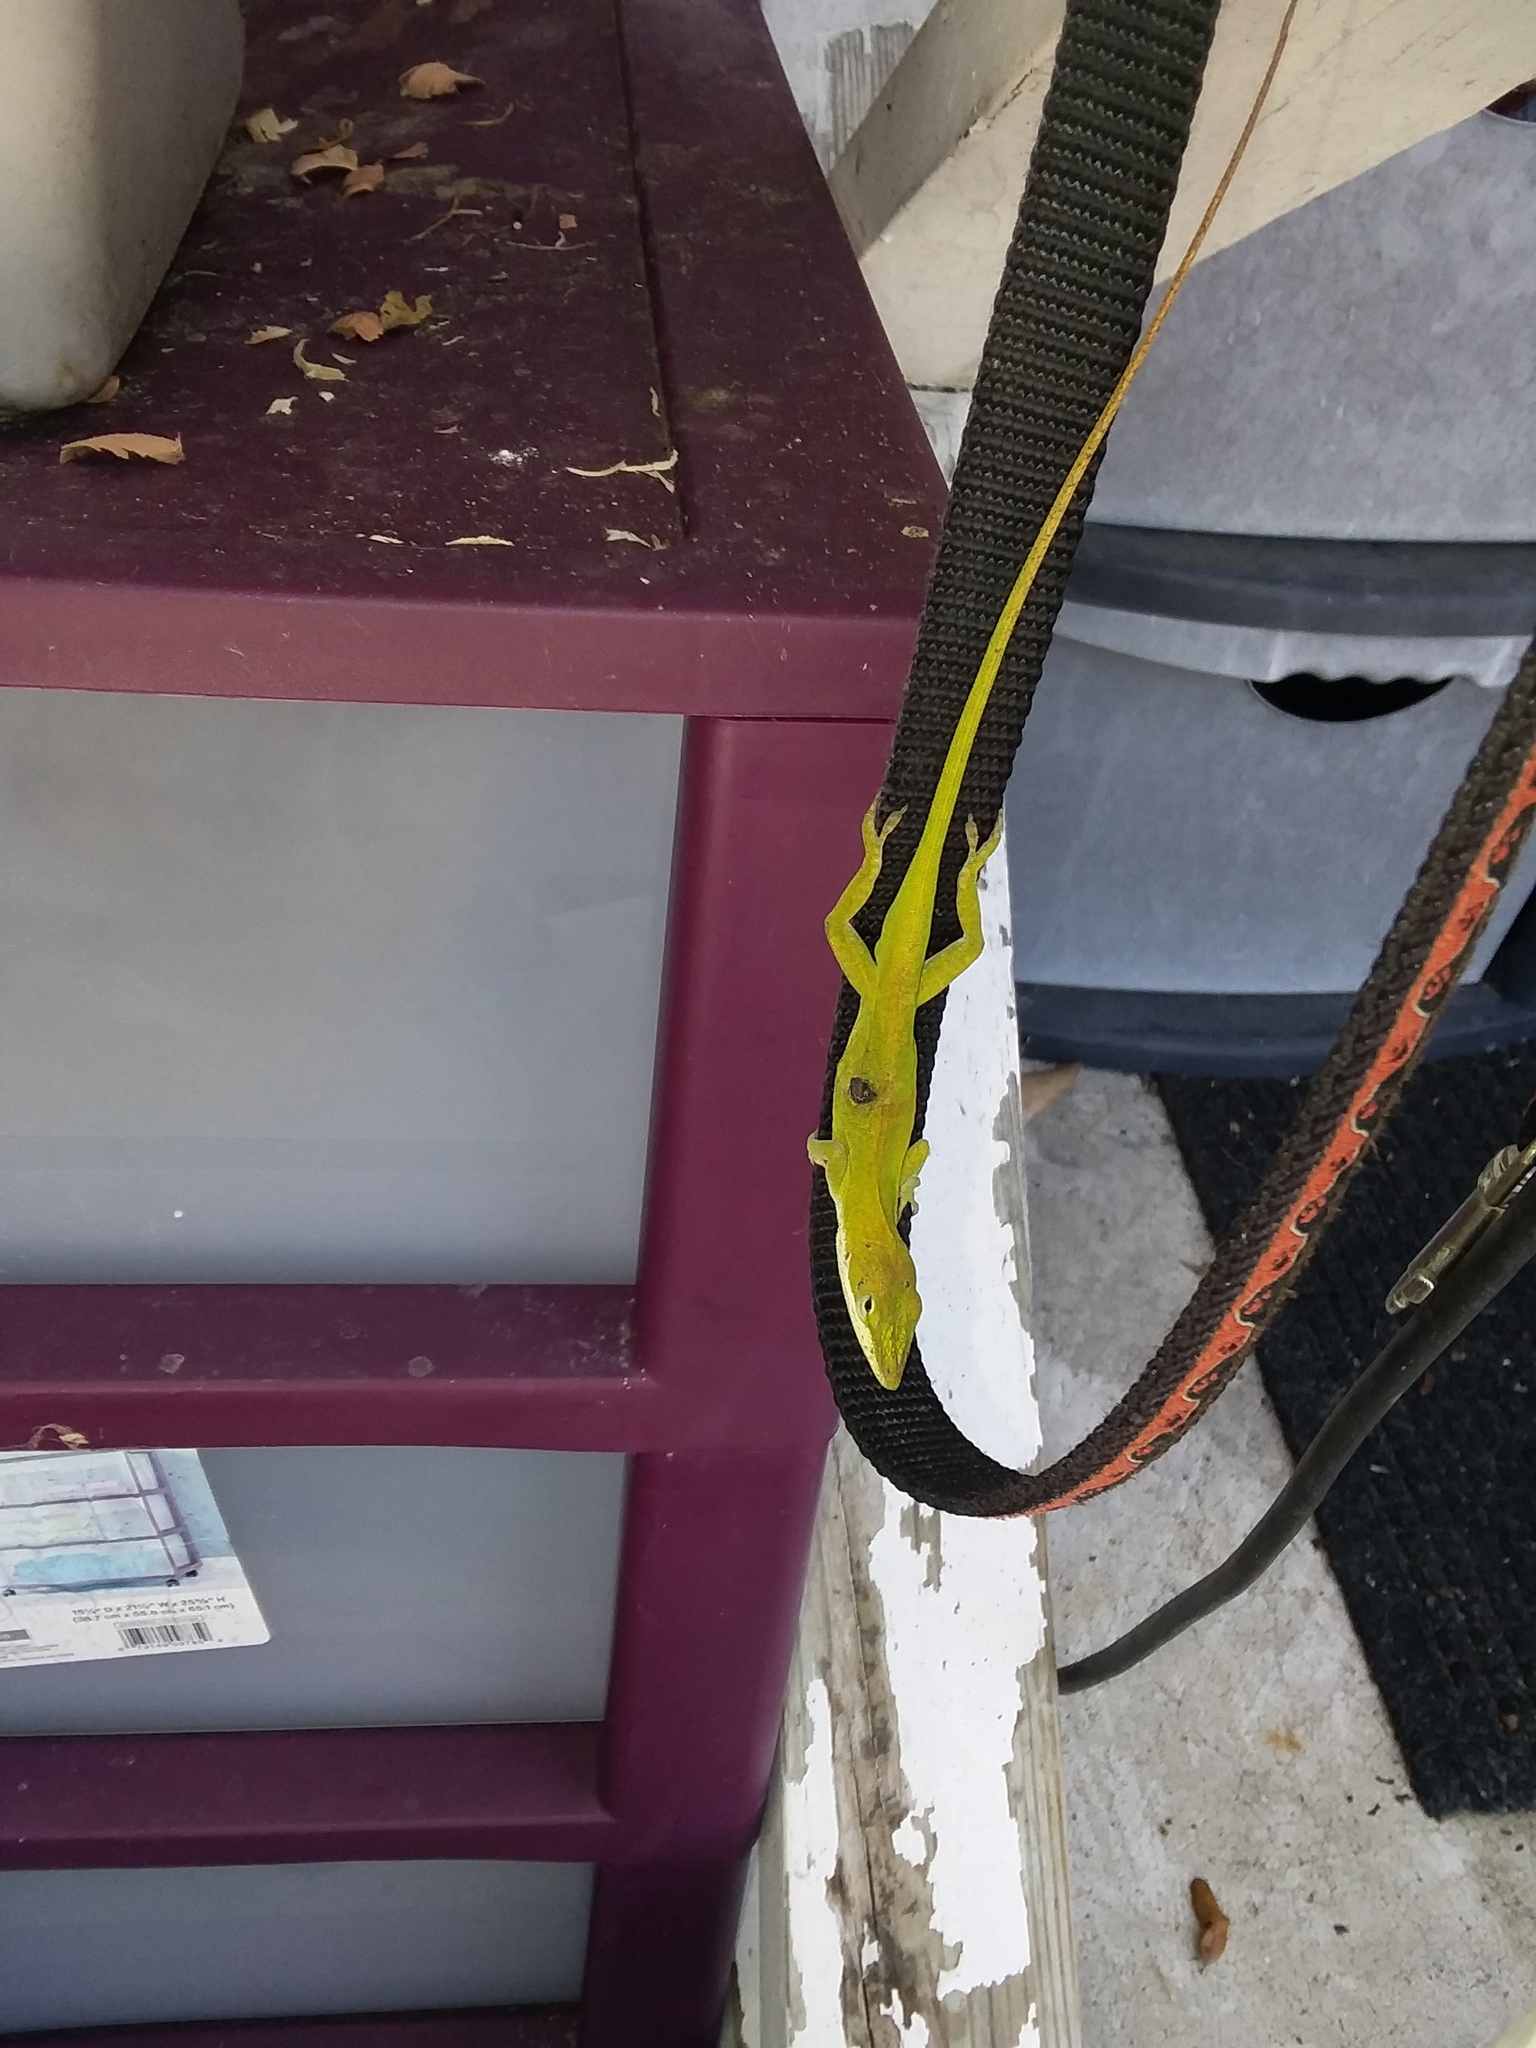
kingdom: Animalia
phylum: Chordata
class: Squamata
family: Dactyloidae
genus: Anolis
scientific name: Anolis carolinensis
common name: Green anole
